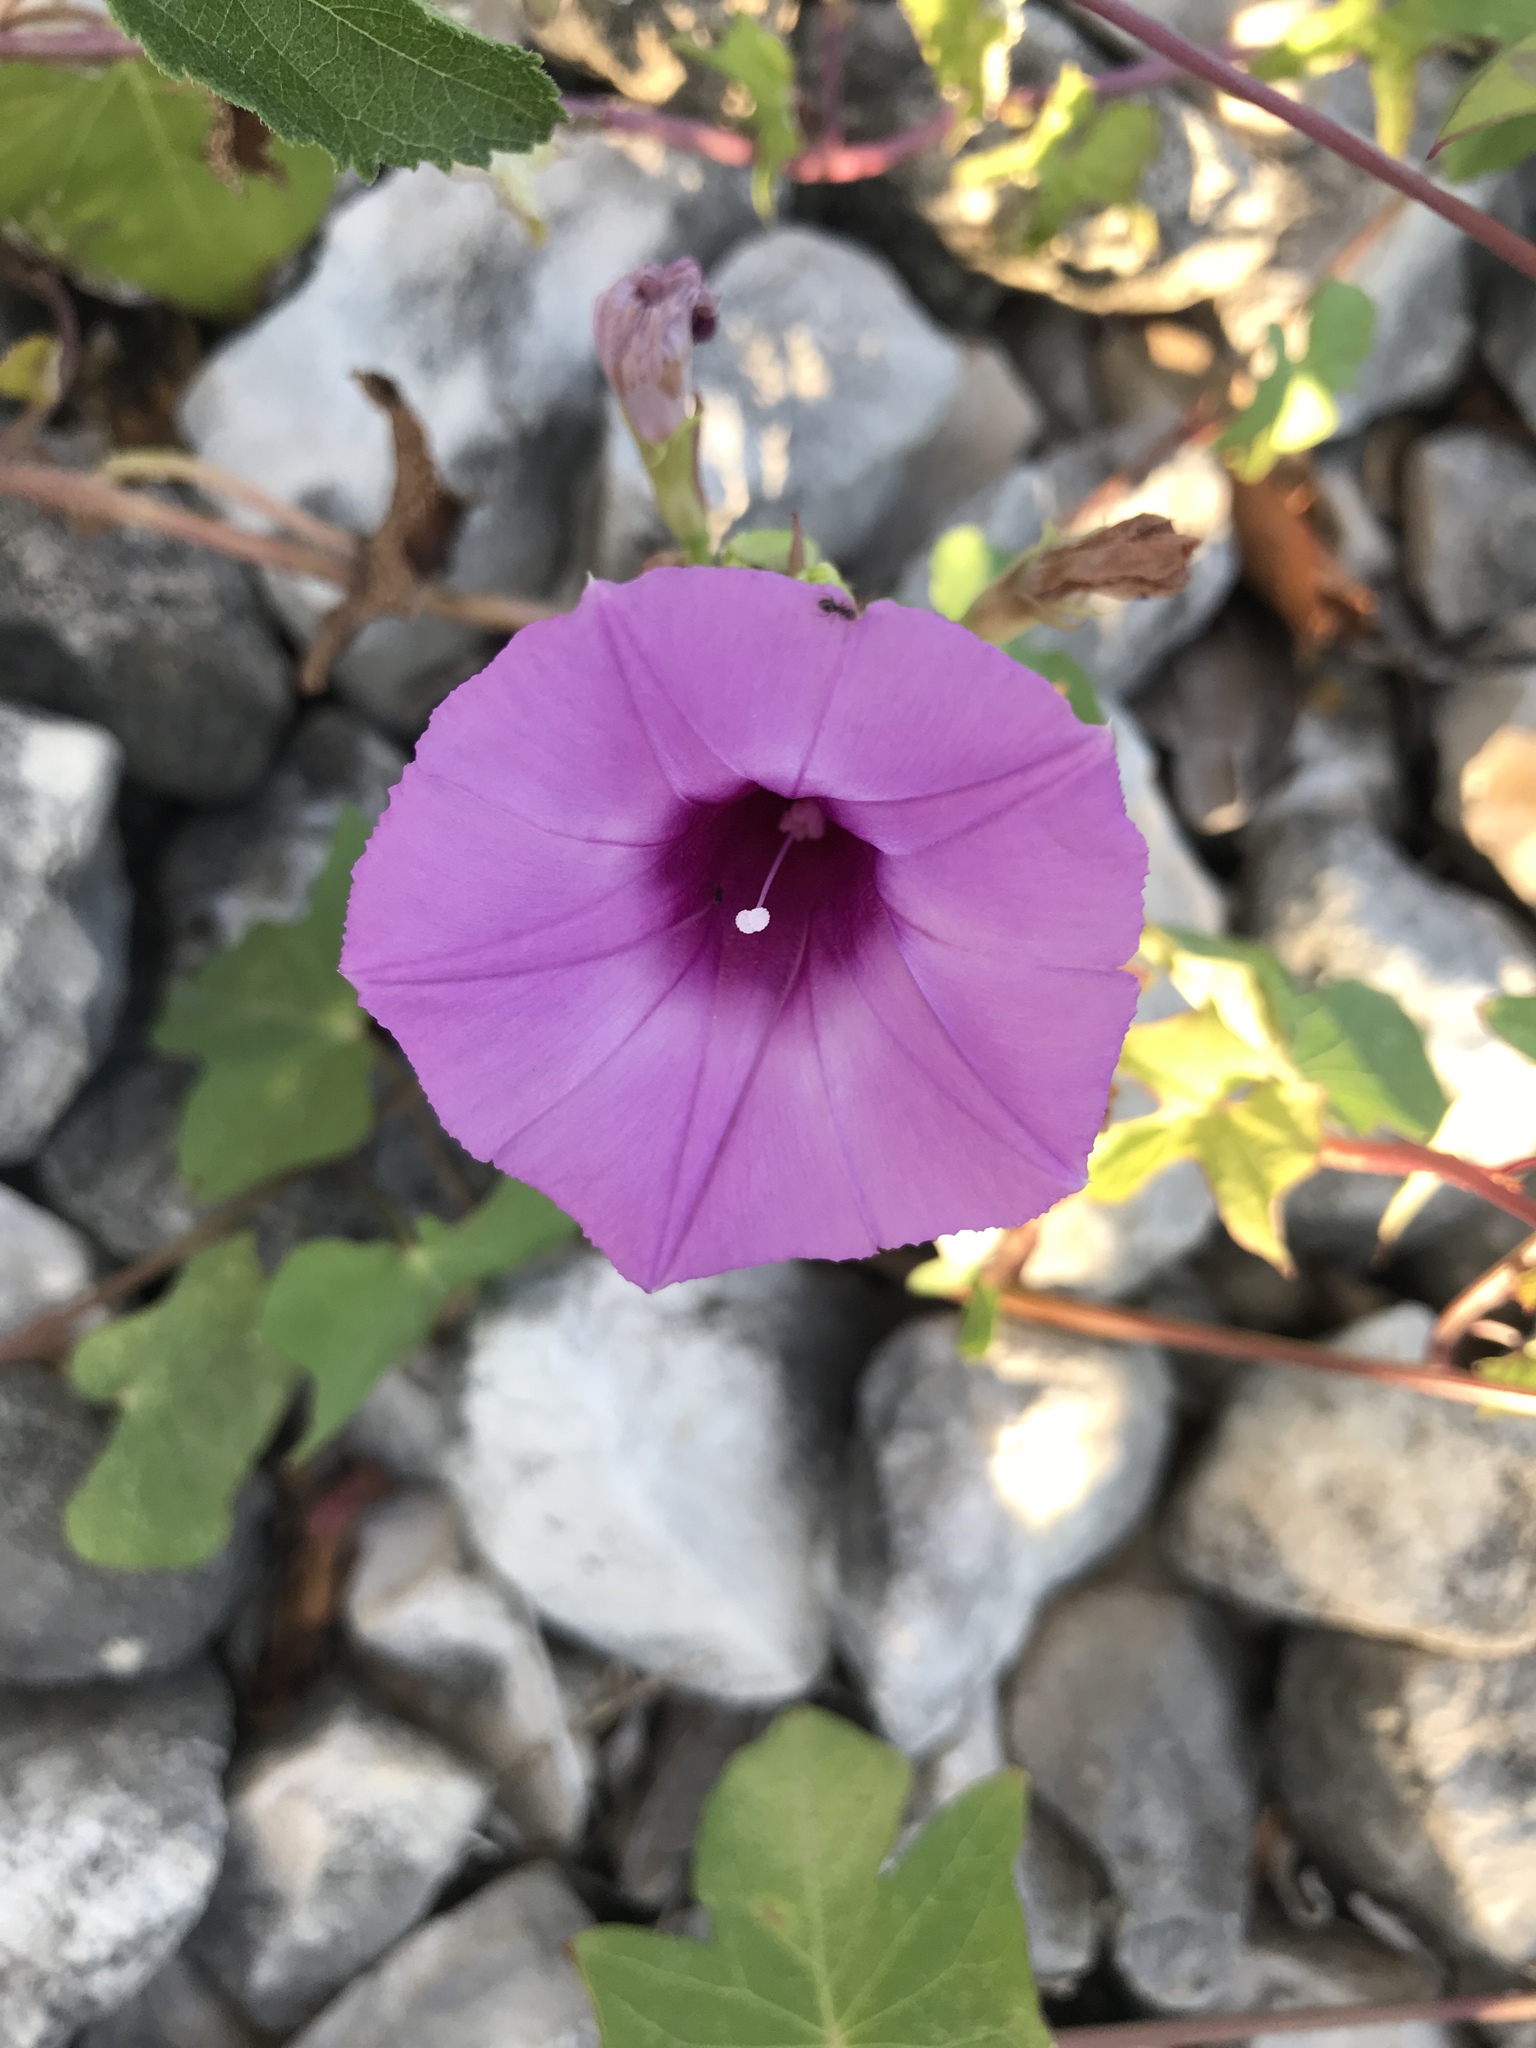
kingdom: Plantae
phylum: Tracheophyta
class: Magnoliopsida
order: Solanales
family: Convolvulaceae
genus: Ipomoea
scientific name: Ipomoea cordatotriloba
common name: Cotton morning glory
